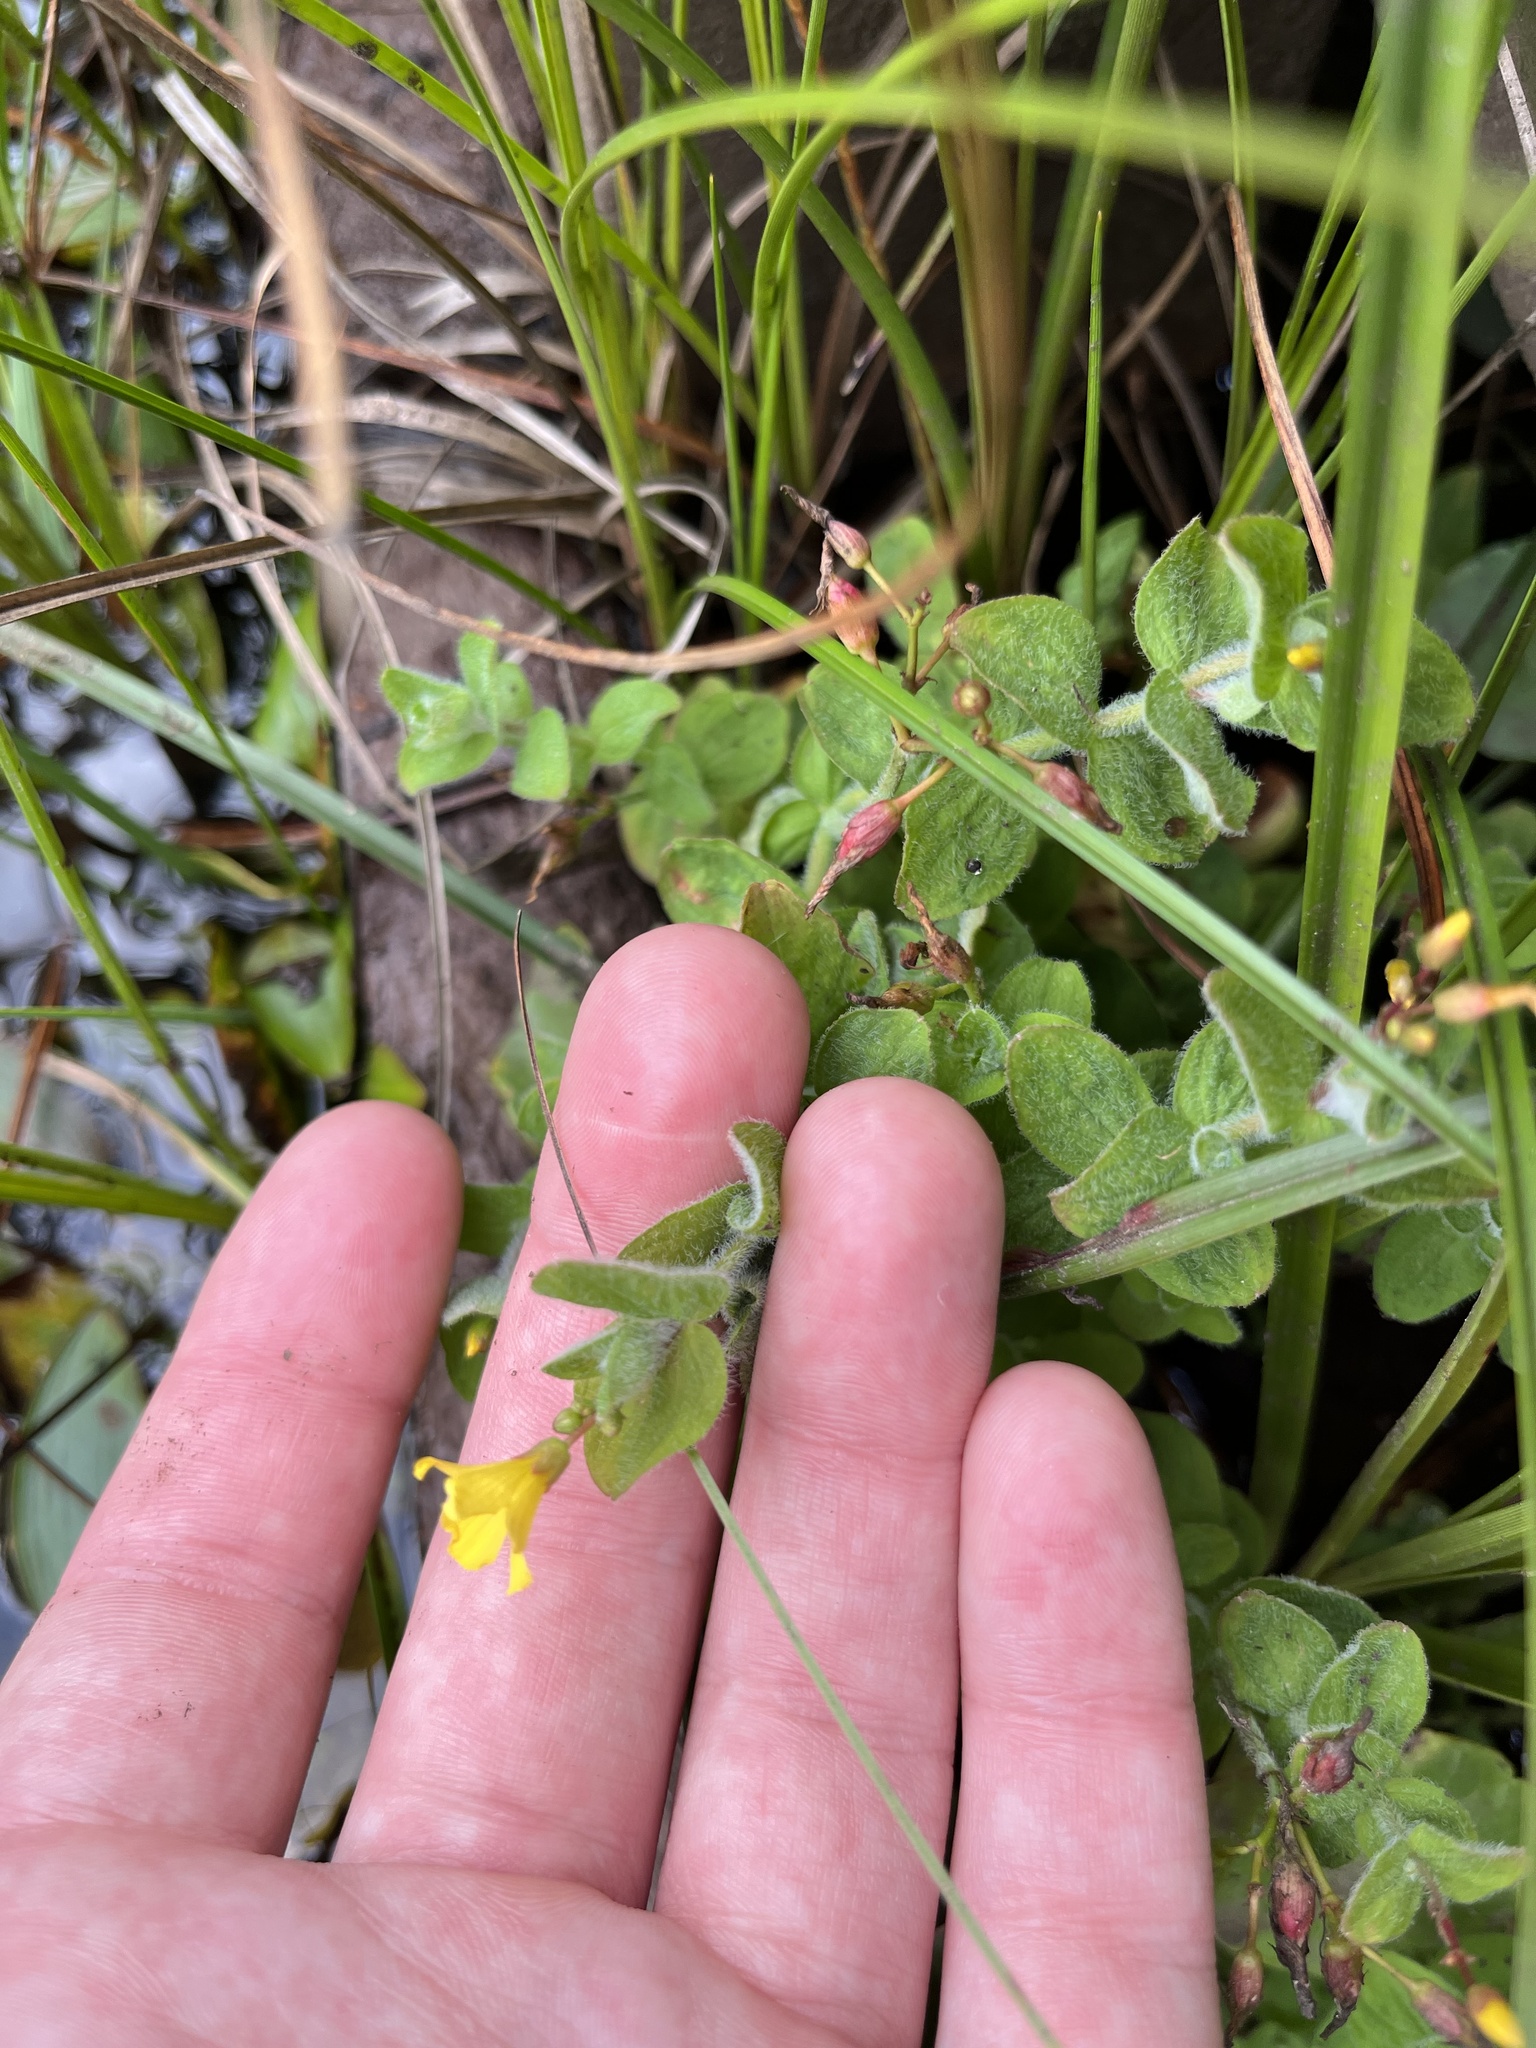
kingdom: Plantae
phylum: Tracheophyta
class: Magnoliopsida
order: Malpighiales
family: Hypericaceae
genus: Hypericum
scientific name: Hypericum elodes
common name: Marsh st. john's-wort
